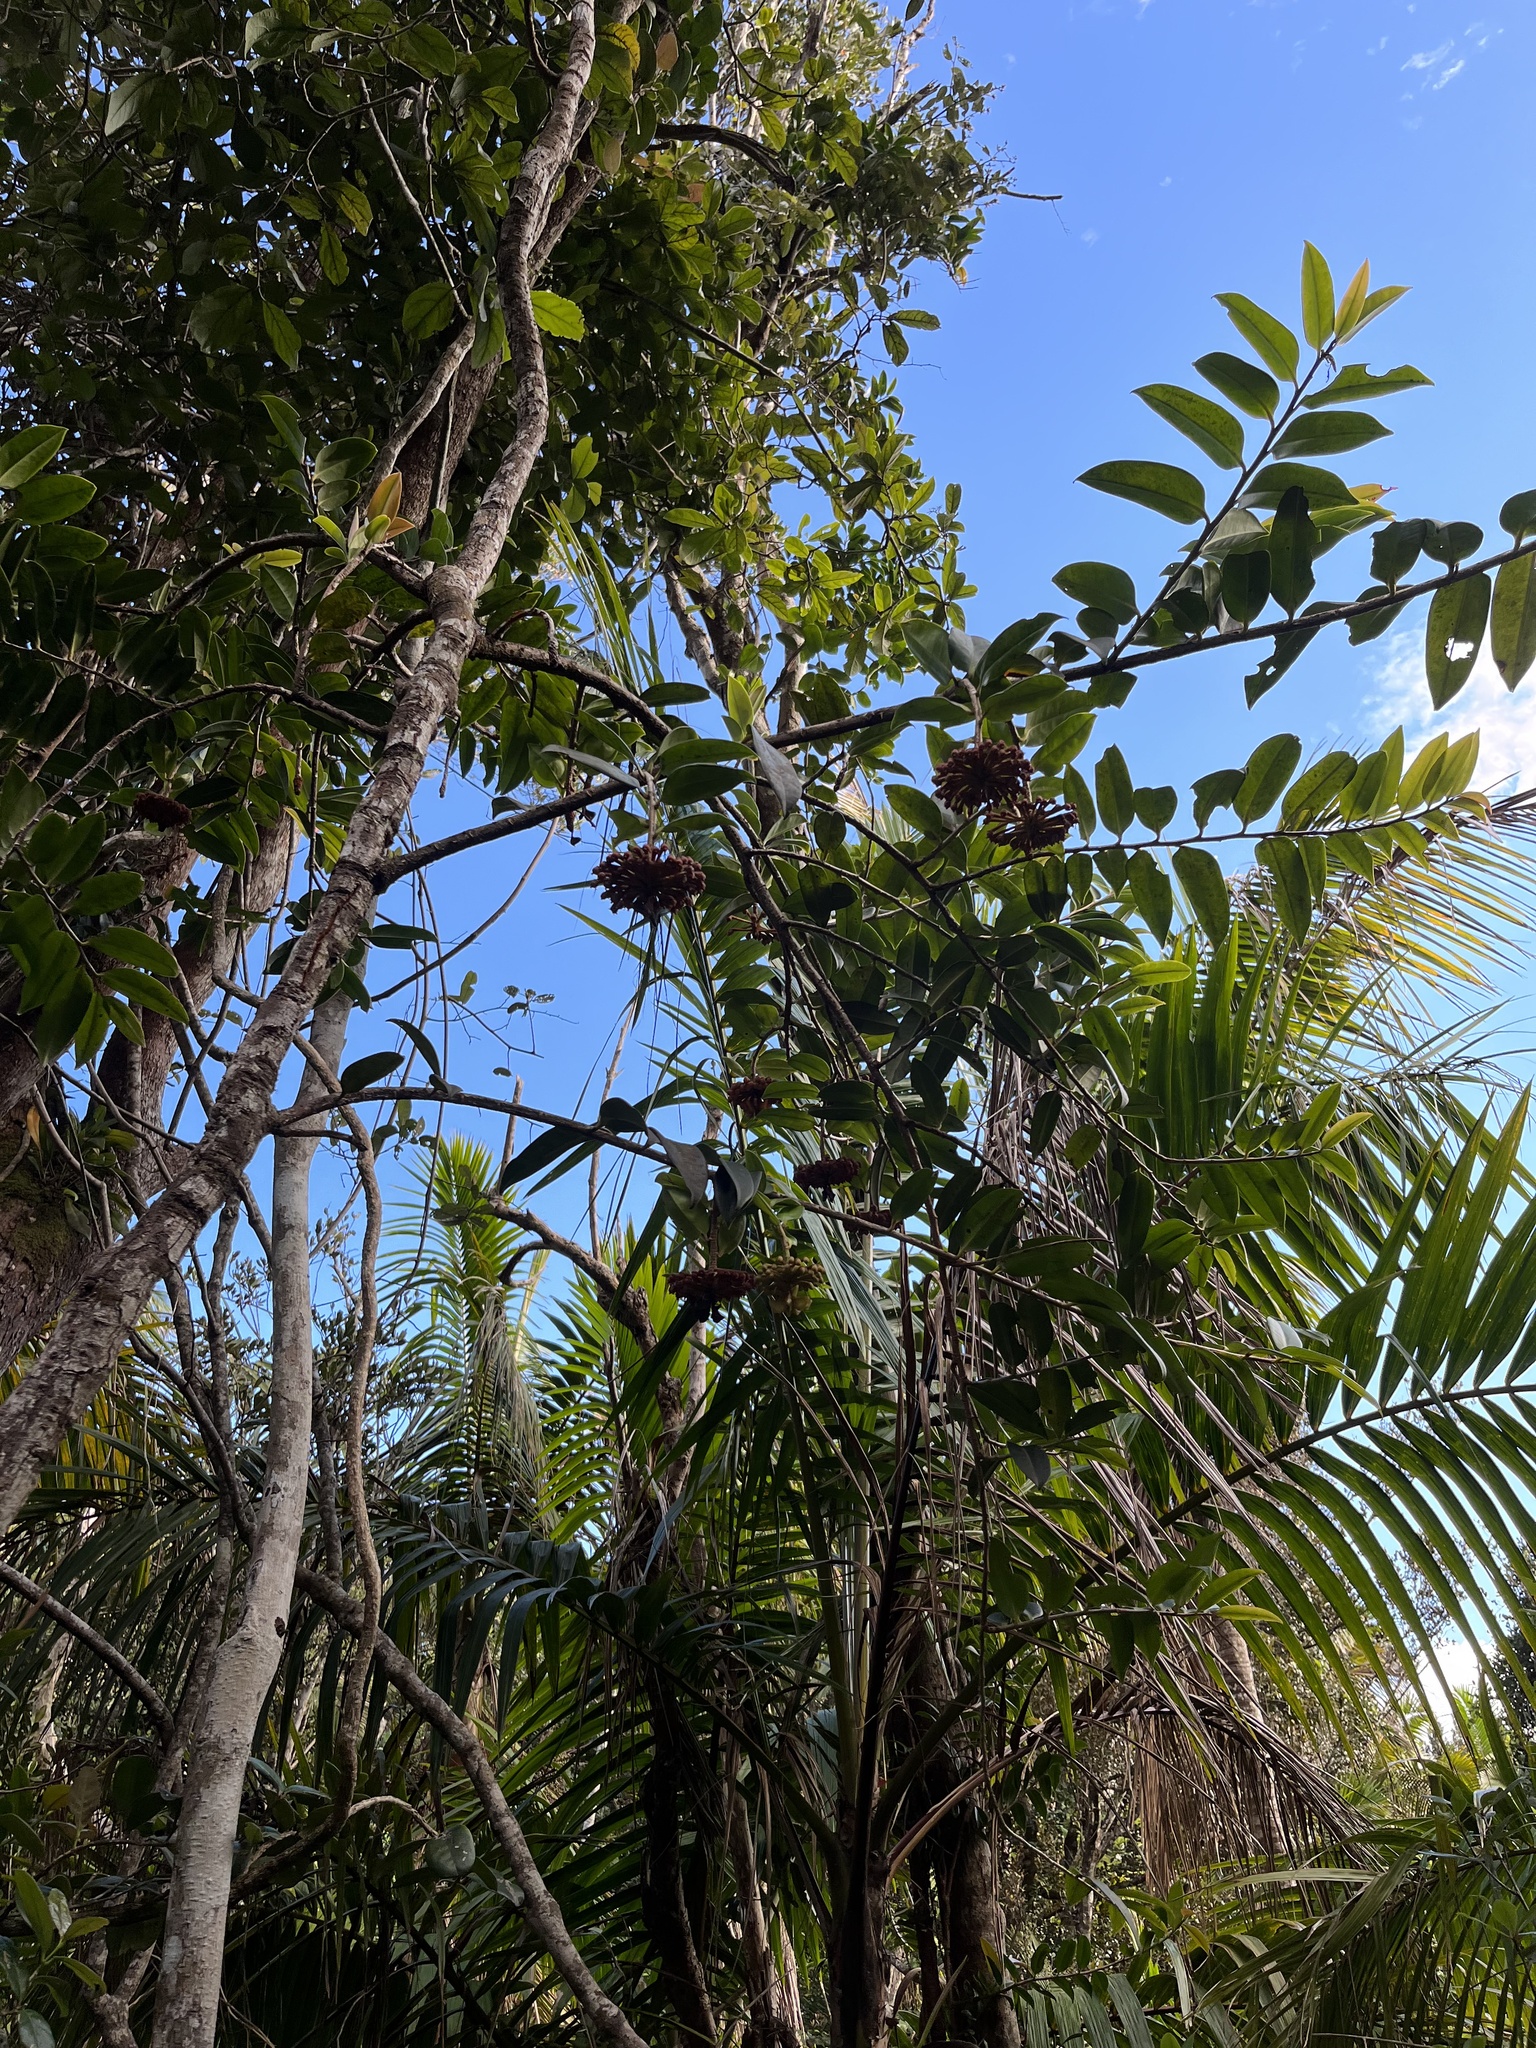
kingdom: Plantae
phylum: Tracheophyta
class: Magnoliopsida
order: Ericales
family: Marcgraviaceae
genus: Marcgravia
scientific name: Marcgravia sintenisii
